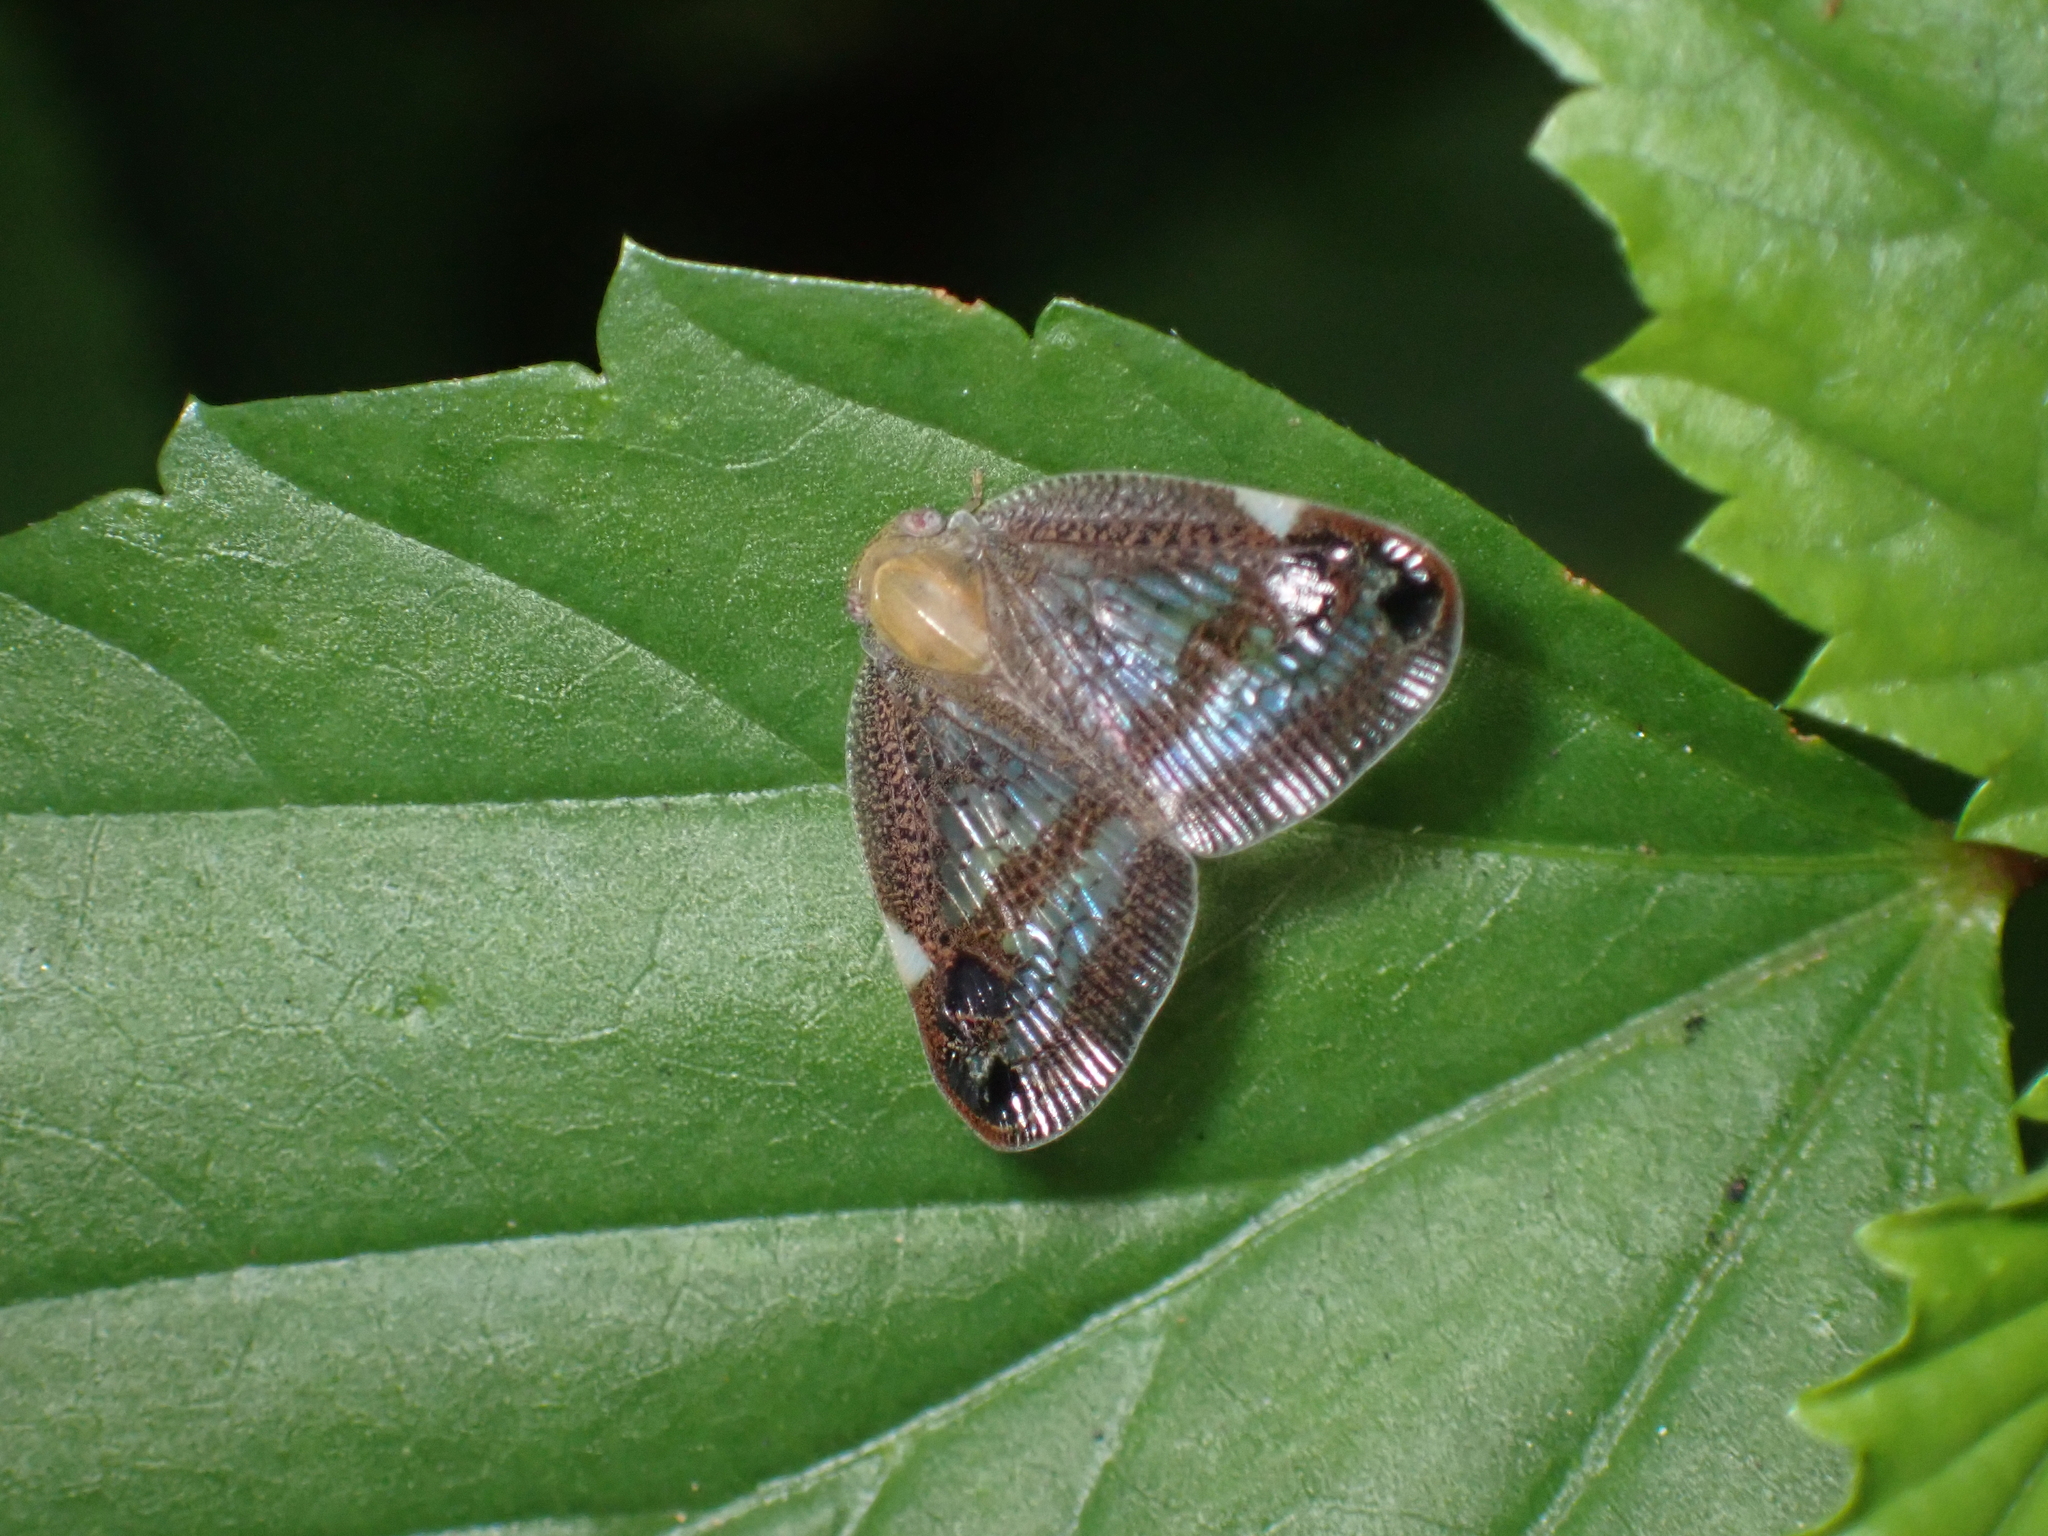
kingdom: Animalia
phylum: Arthropoda
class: Insecta
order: Hemiptera
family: Ricaniidae
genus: Parapiromis
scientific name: Parapiromis translucida
